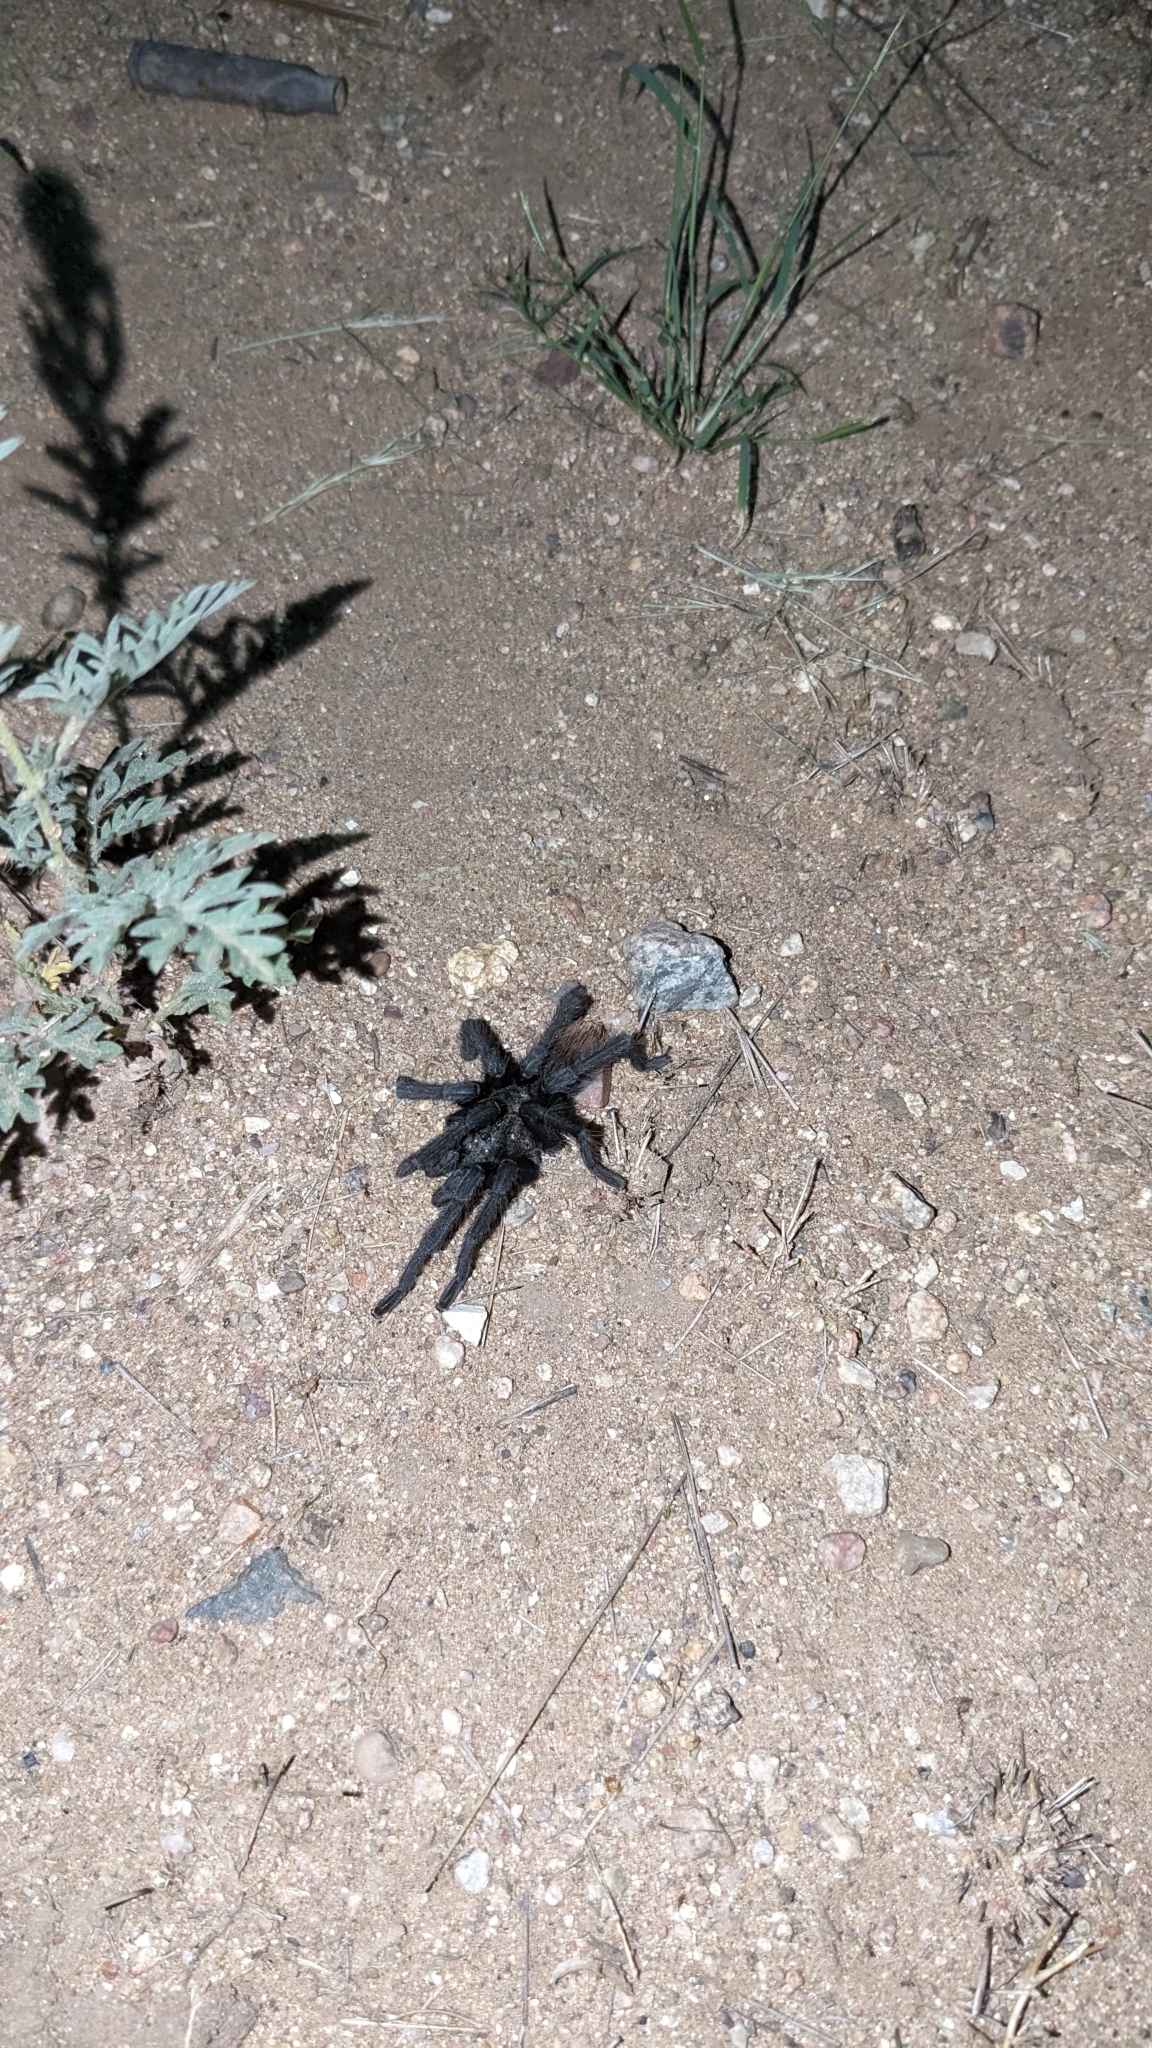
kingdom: Animalia
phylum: Arthropoda
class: Arachnida
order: Araneae
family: Theraphosidae
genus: Aphonopelma
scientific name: Aphonopelma vorhiesi
